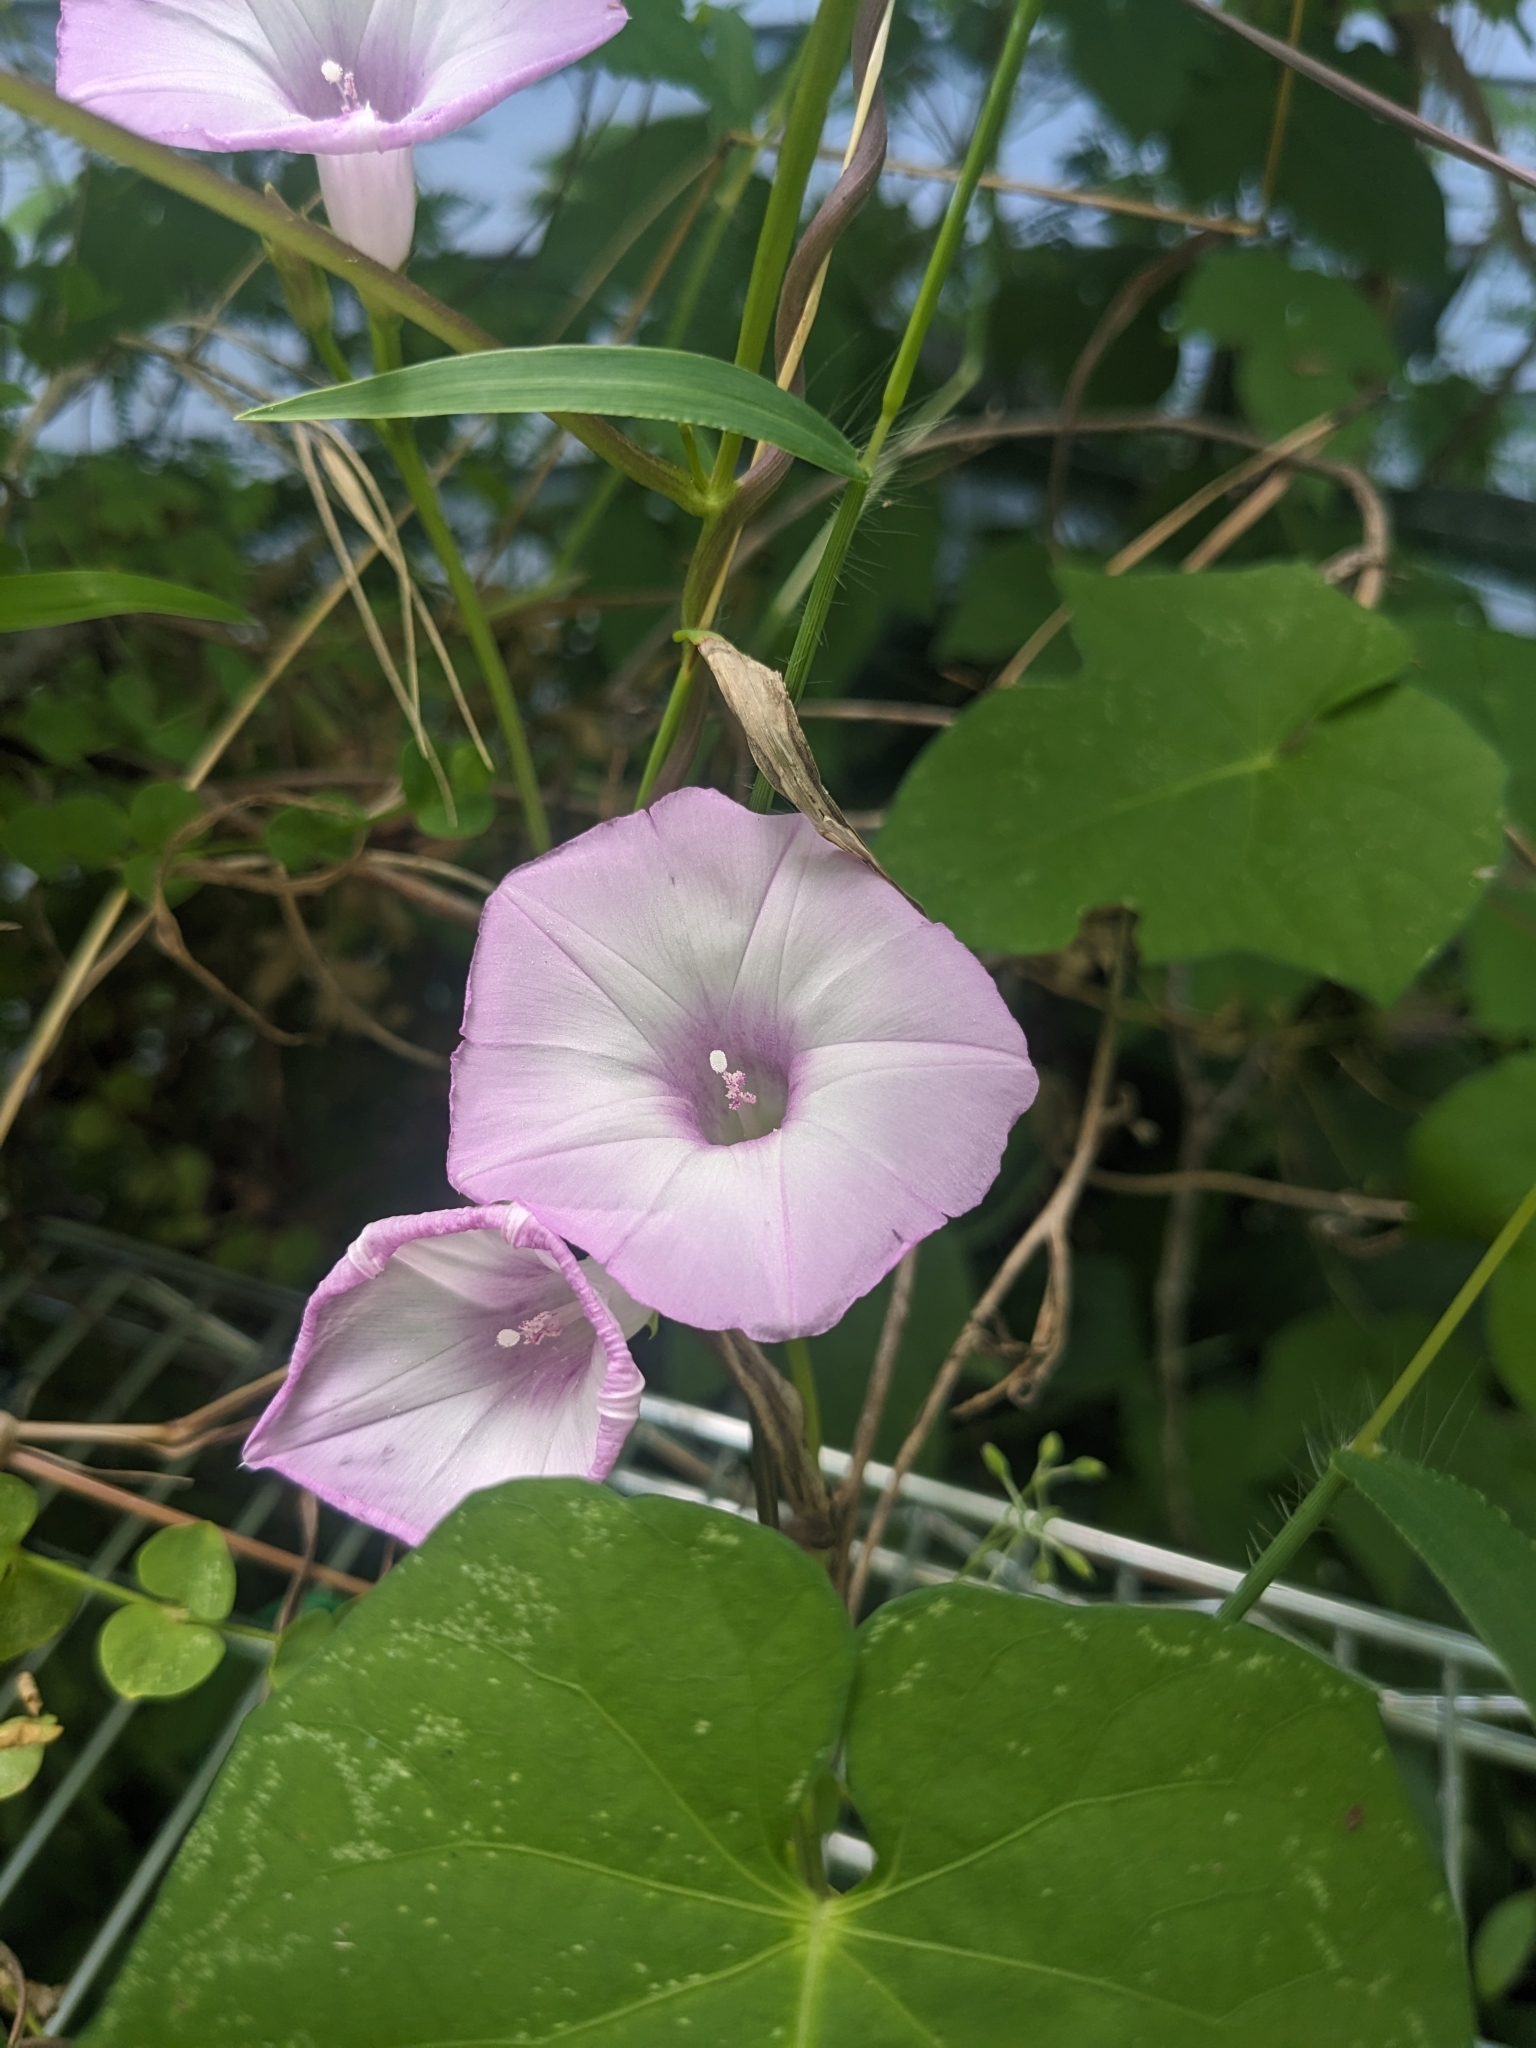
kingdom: Plantae
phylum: Tracheophyta
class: Magnoliopsida
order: Solanales
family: Convolvulaceae
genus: Ipomoea
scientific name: Ipomoea cordatotriloba
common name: Cotton morning glory
